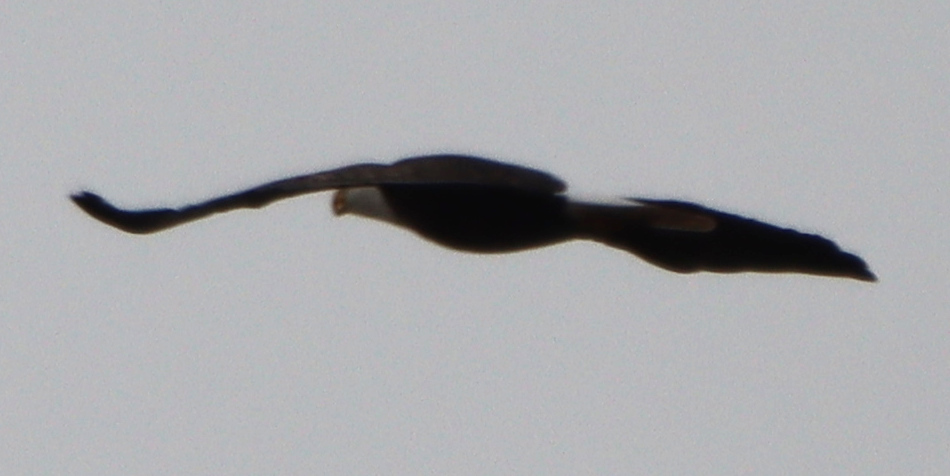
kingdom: Animalia
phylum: Chordata
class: Aves
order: Accipitriformes
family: Accipitridae
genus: Haliaeetus
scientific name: Haliaeetus leucocephalus
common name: Bald eagle
